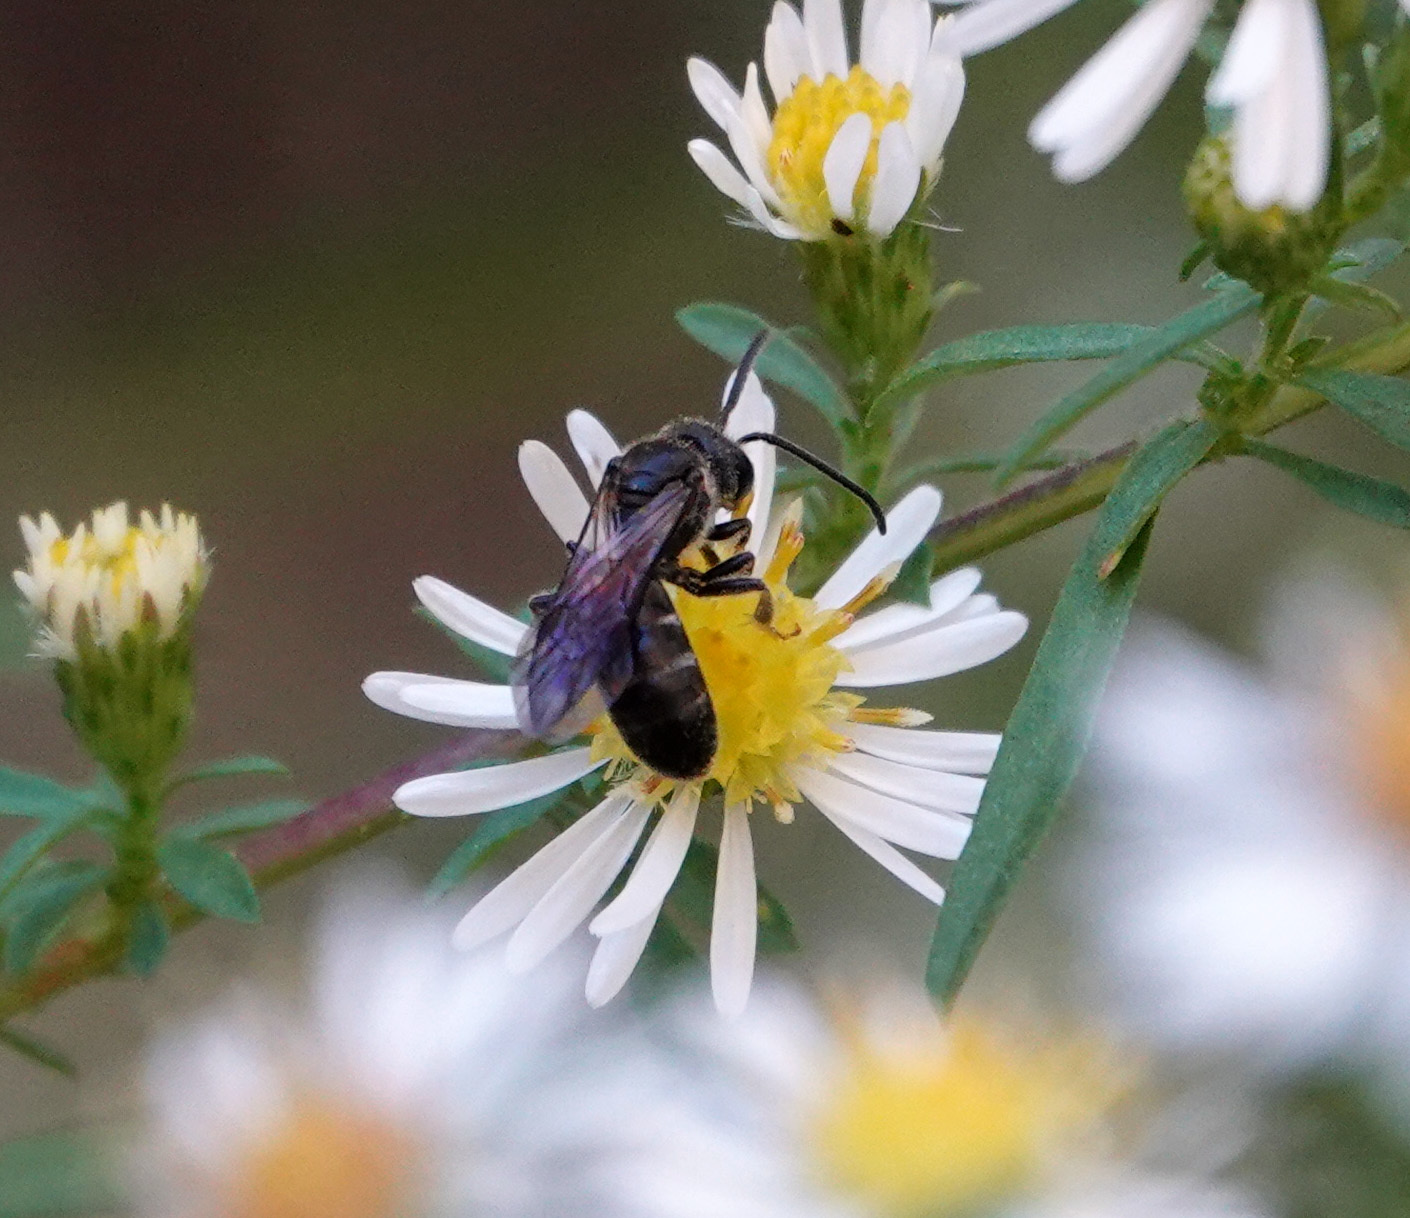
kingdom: Animalia
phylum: Arthropoda
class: Insecta
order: Hymenoptera
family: Halictidae
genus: Lasioglossum
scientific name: Lasioglossum fuscipenne
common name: Brown-winged sweat bee
